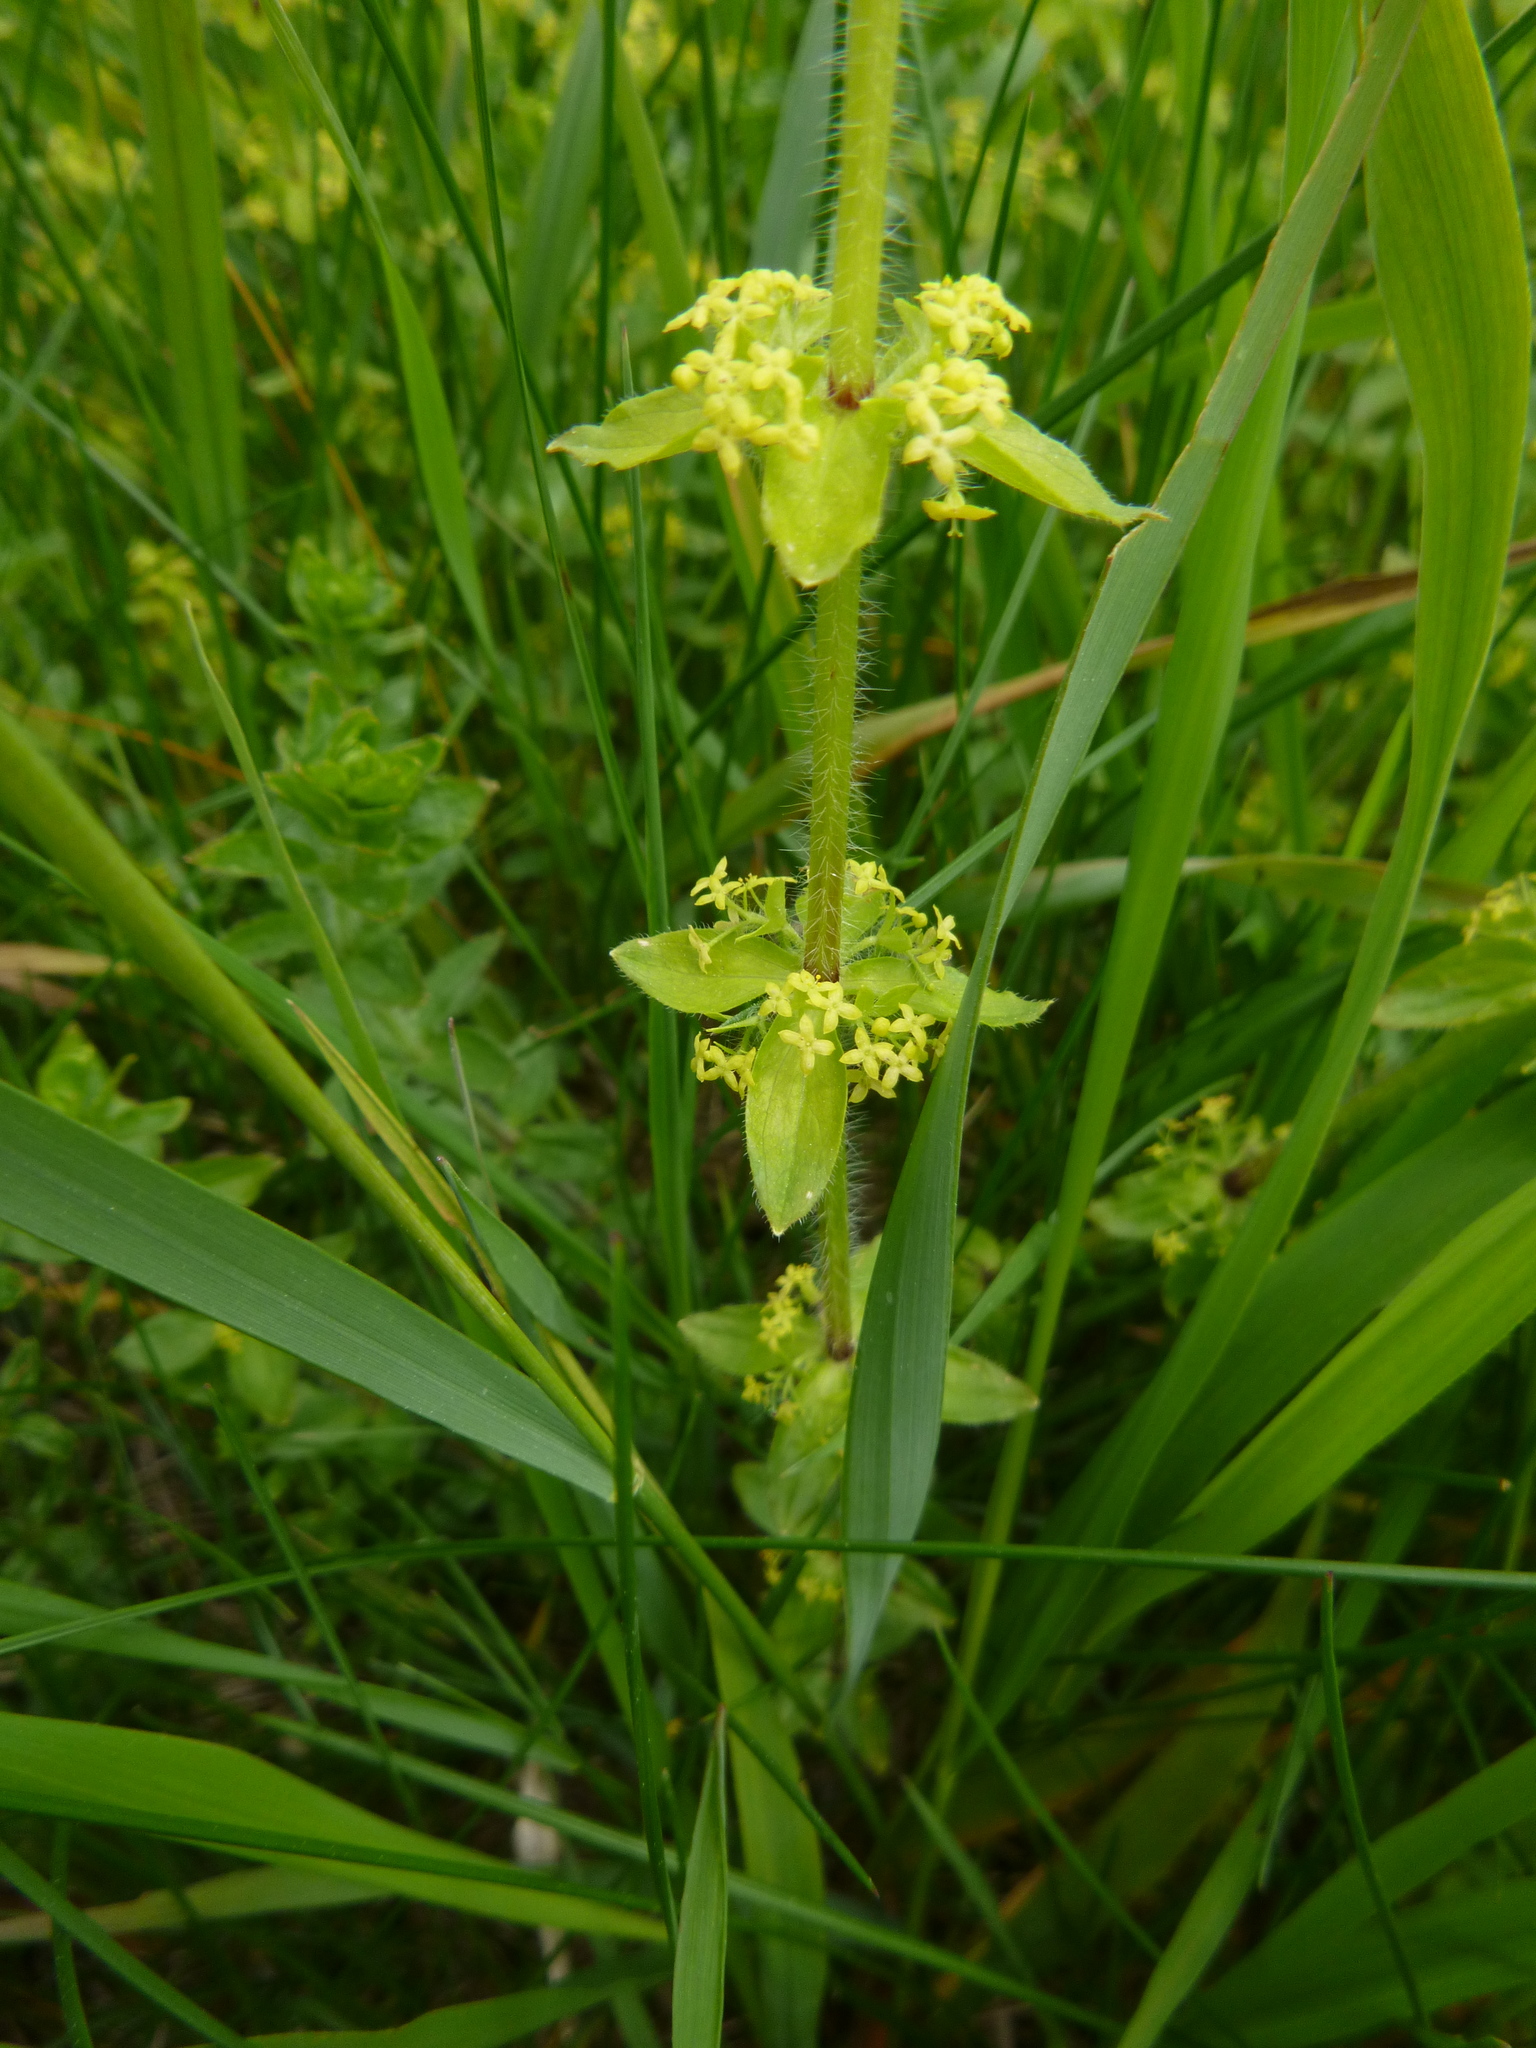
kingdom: Plantae
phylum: Tracheophyta
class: Magnoliopsida
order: Gentianales
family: Rubiaceae
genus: Cruciata
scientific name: Cruciata laevipes
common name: Crosswort
